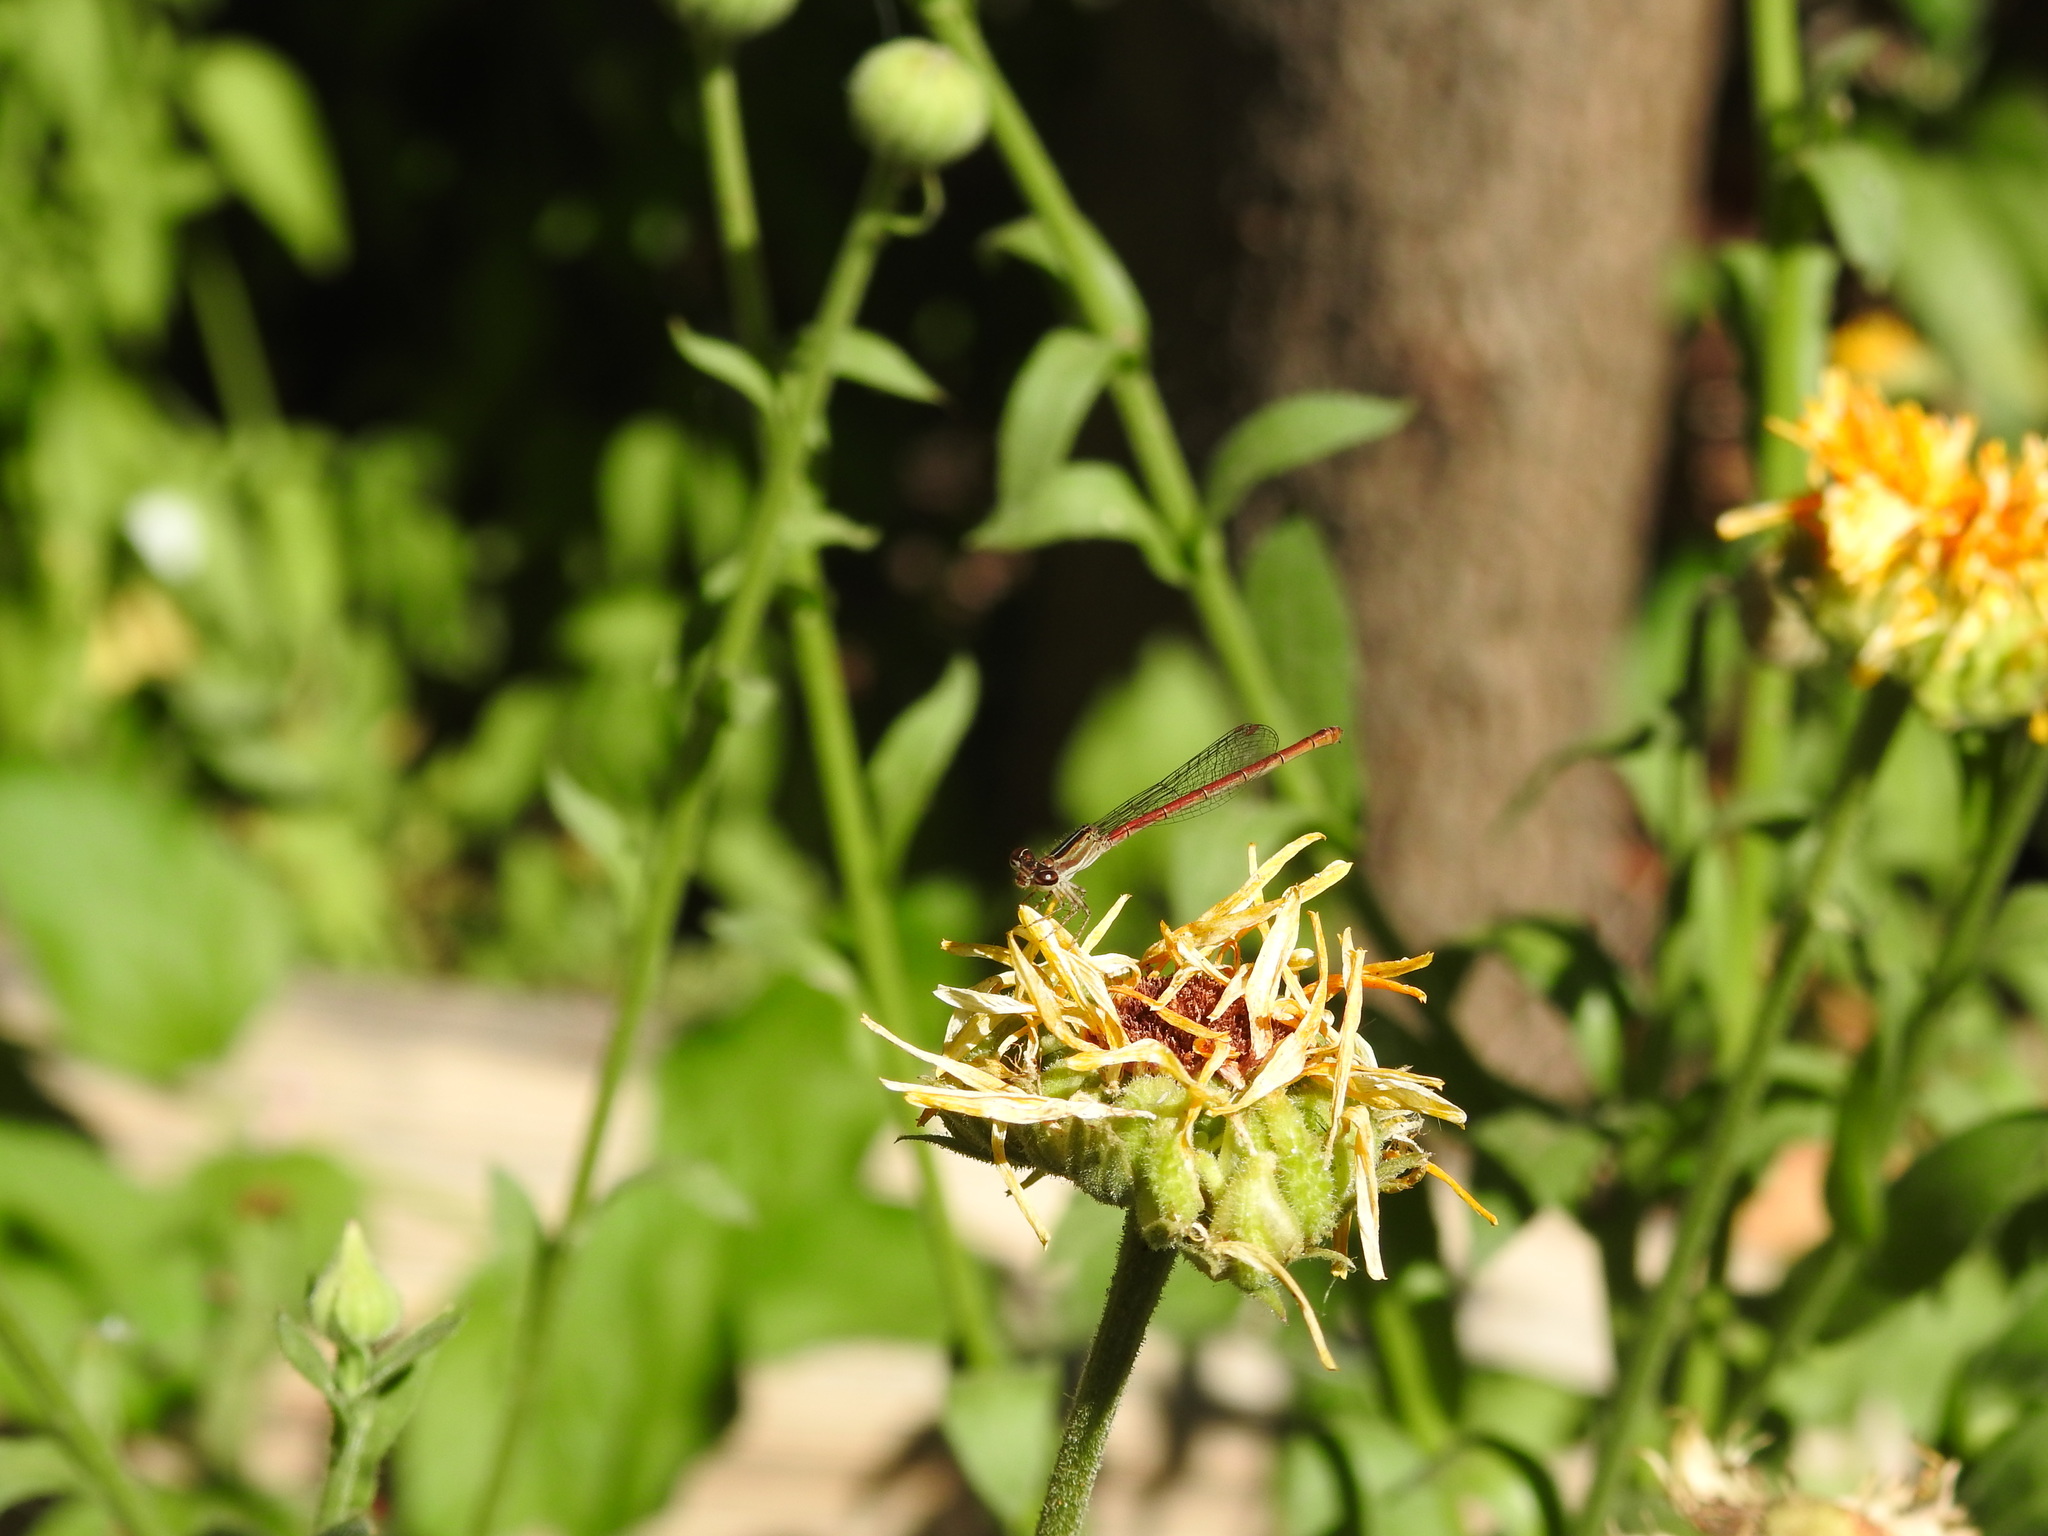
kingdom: Animalia
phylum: Arthropoda
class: Insecta
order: Odonata
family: Coenagrionidae
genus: Telebasis
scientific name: Telebasis willinki
